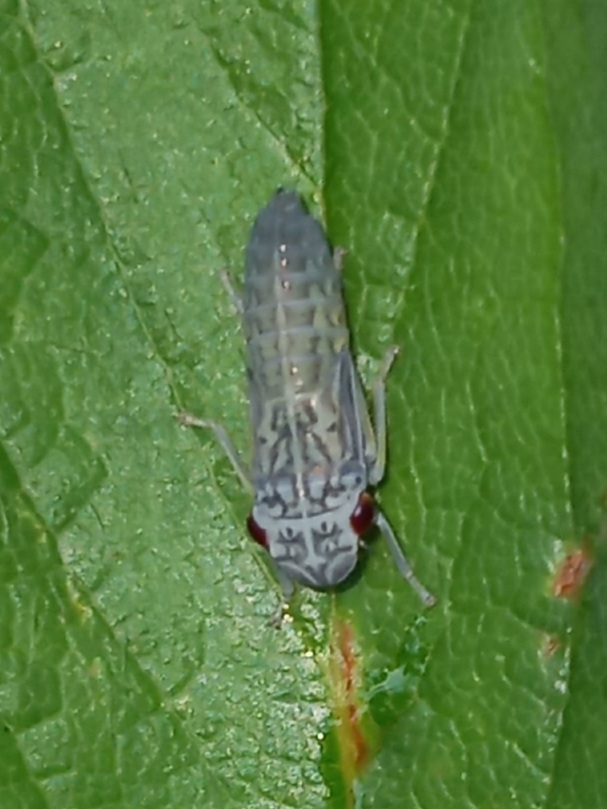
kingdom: Animalia
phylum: Arthropoda
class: Insecta
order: Hemiptera
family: Cicadellidae
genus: Oncometopia
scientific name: Oncometopia orbona
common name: Broad-headed sharpshooter
